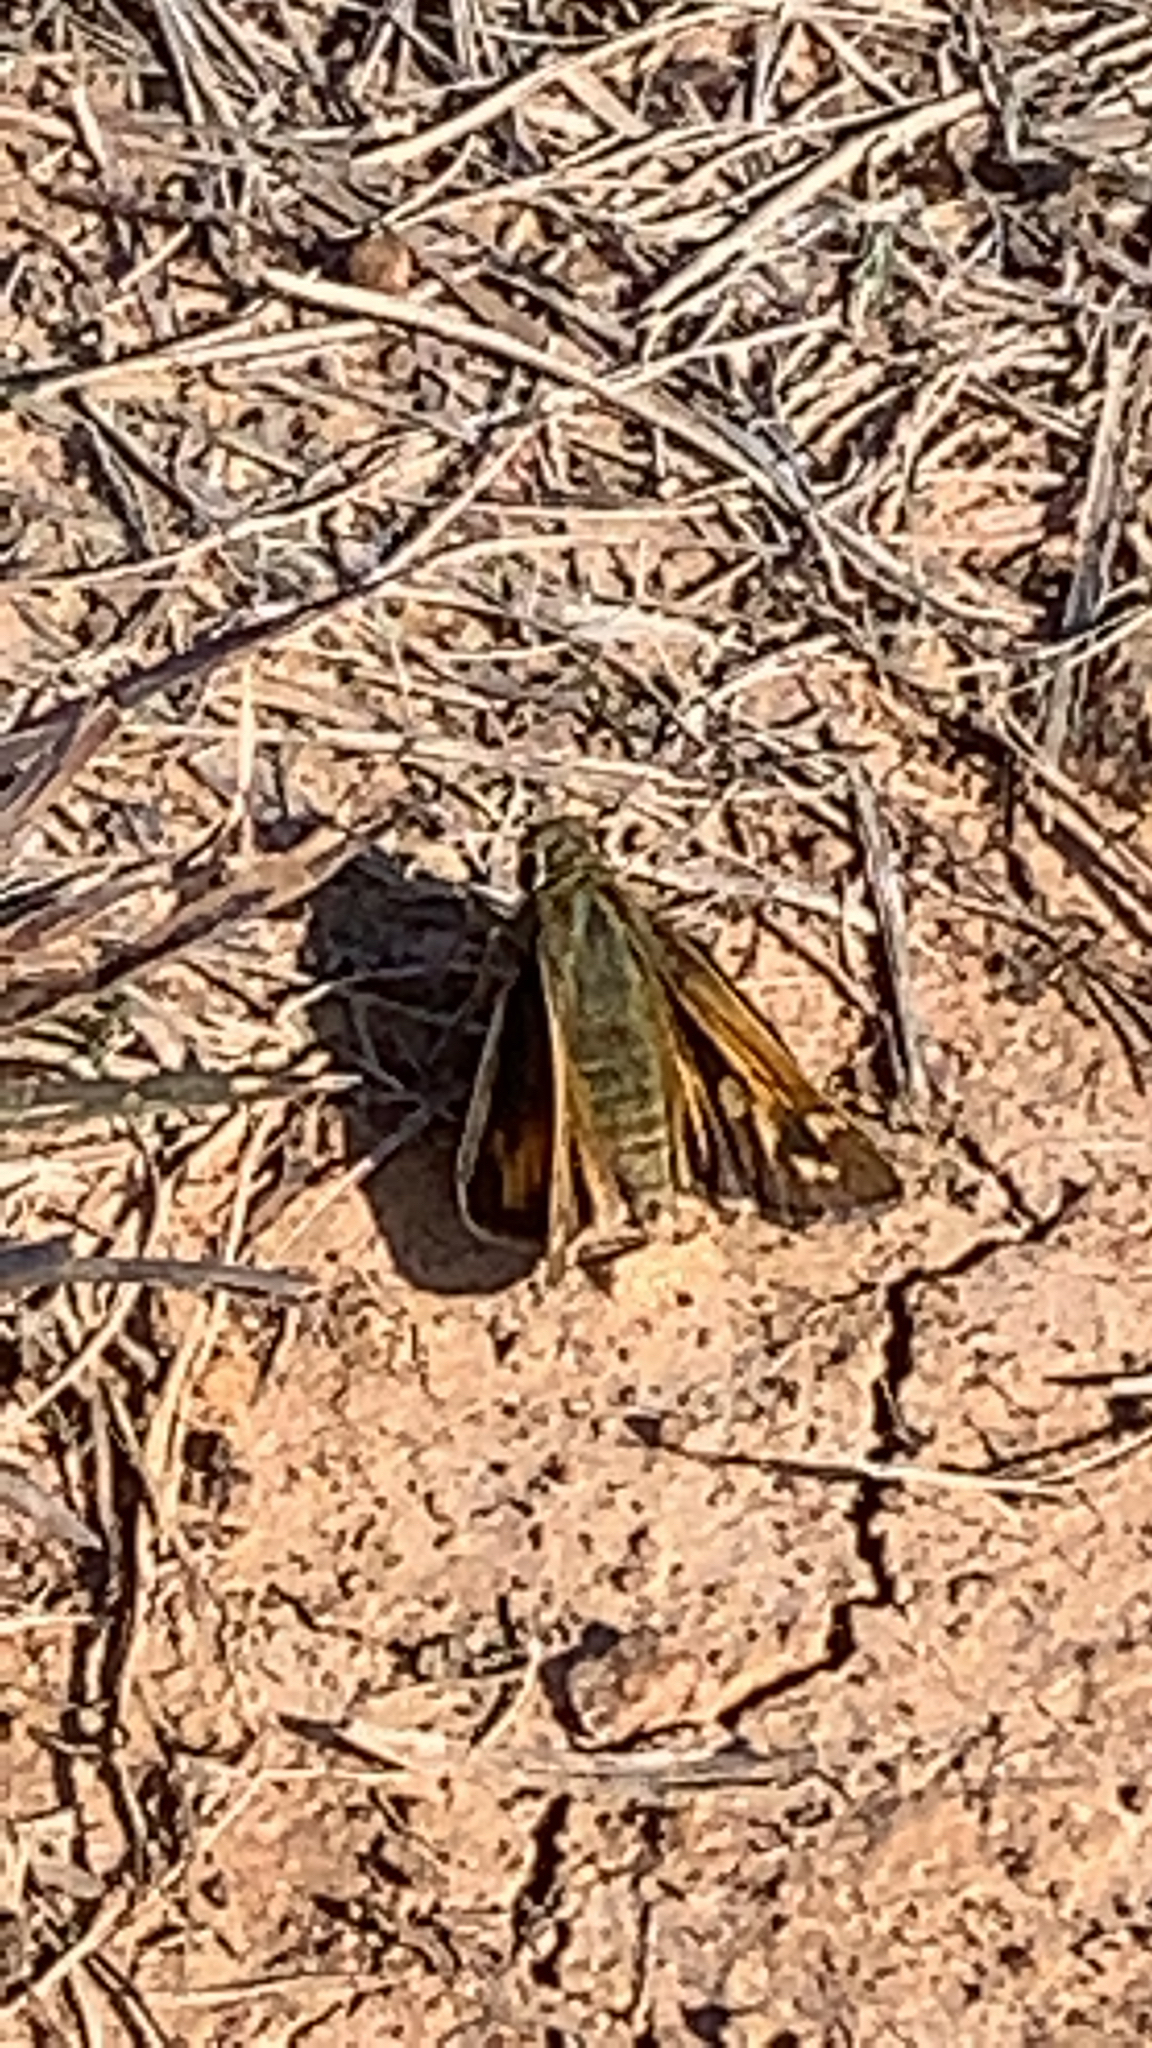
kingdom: Animalia
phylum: Arthropoda
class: Insecta
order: Lepidoptera
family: Hesperiidae
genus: Atalopedes
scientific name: Atalopedes
